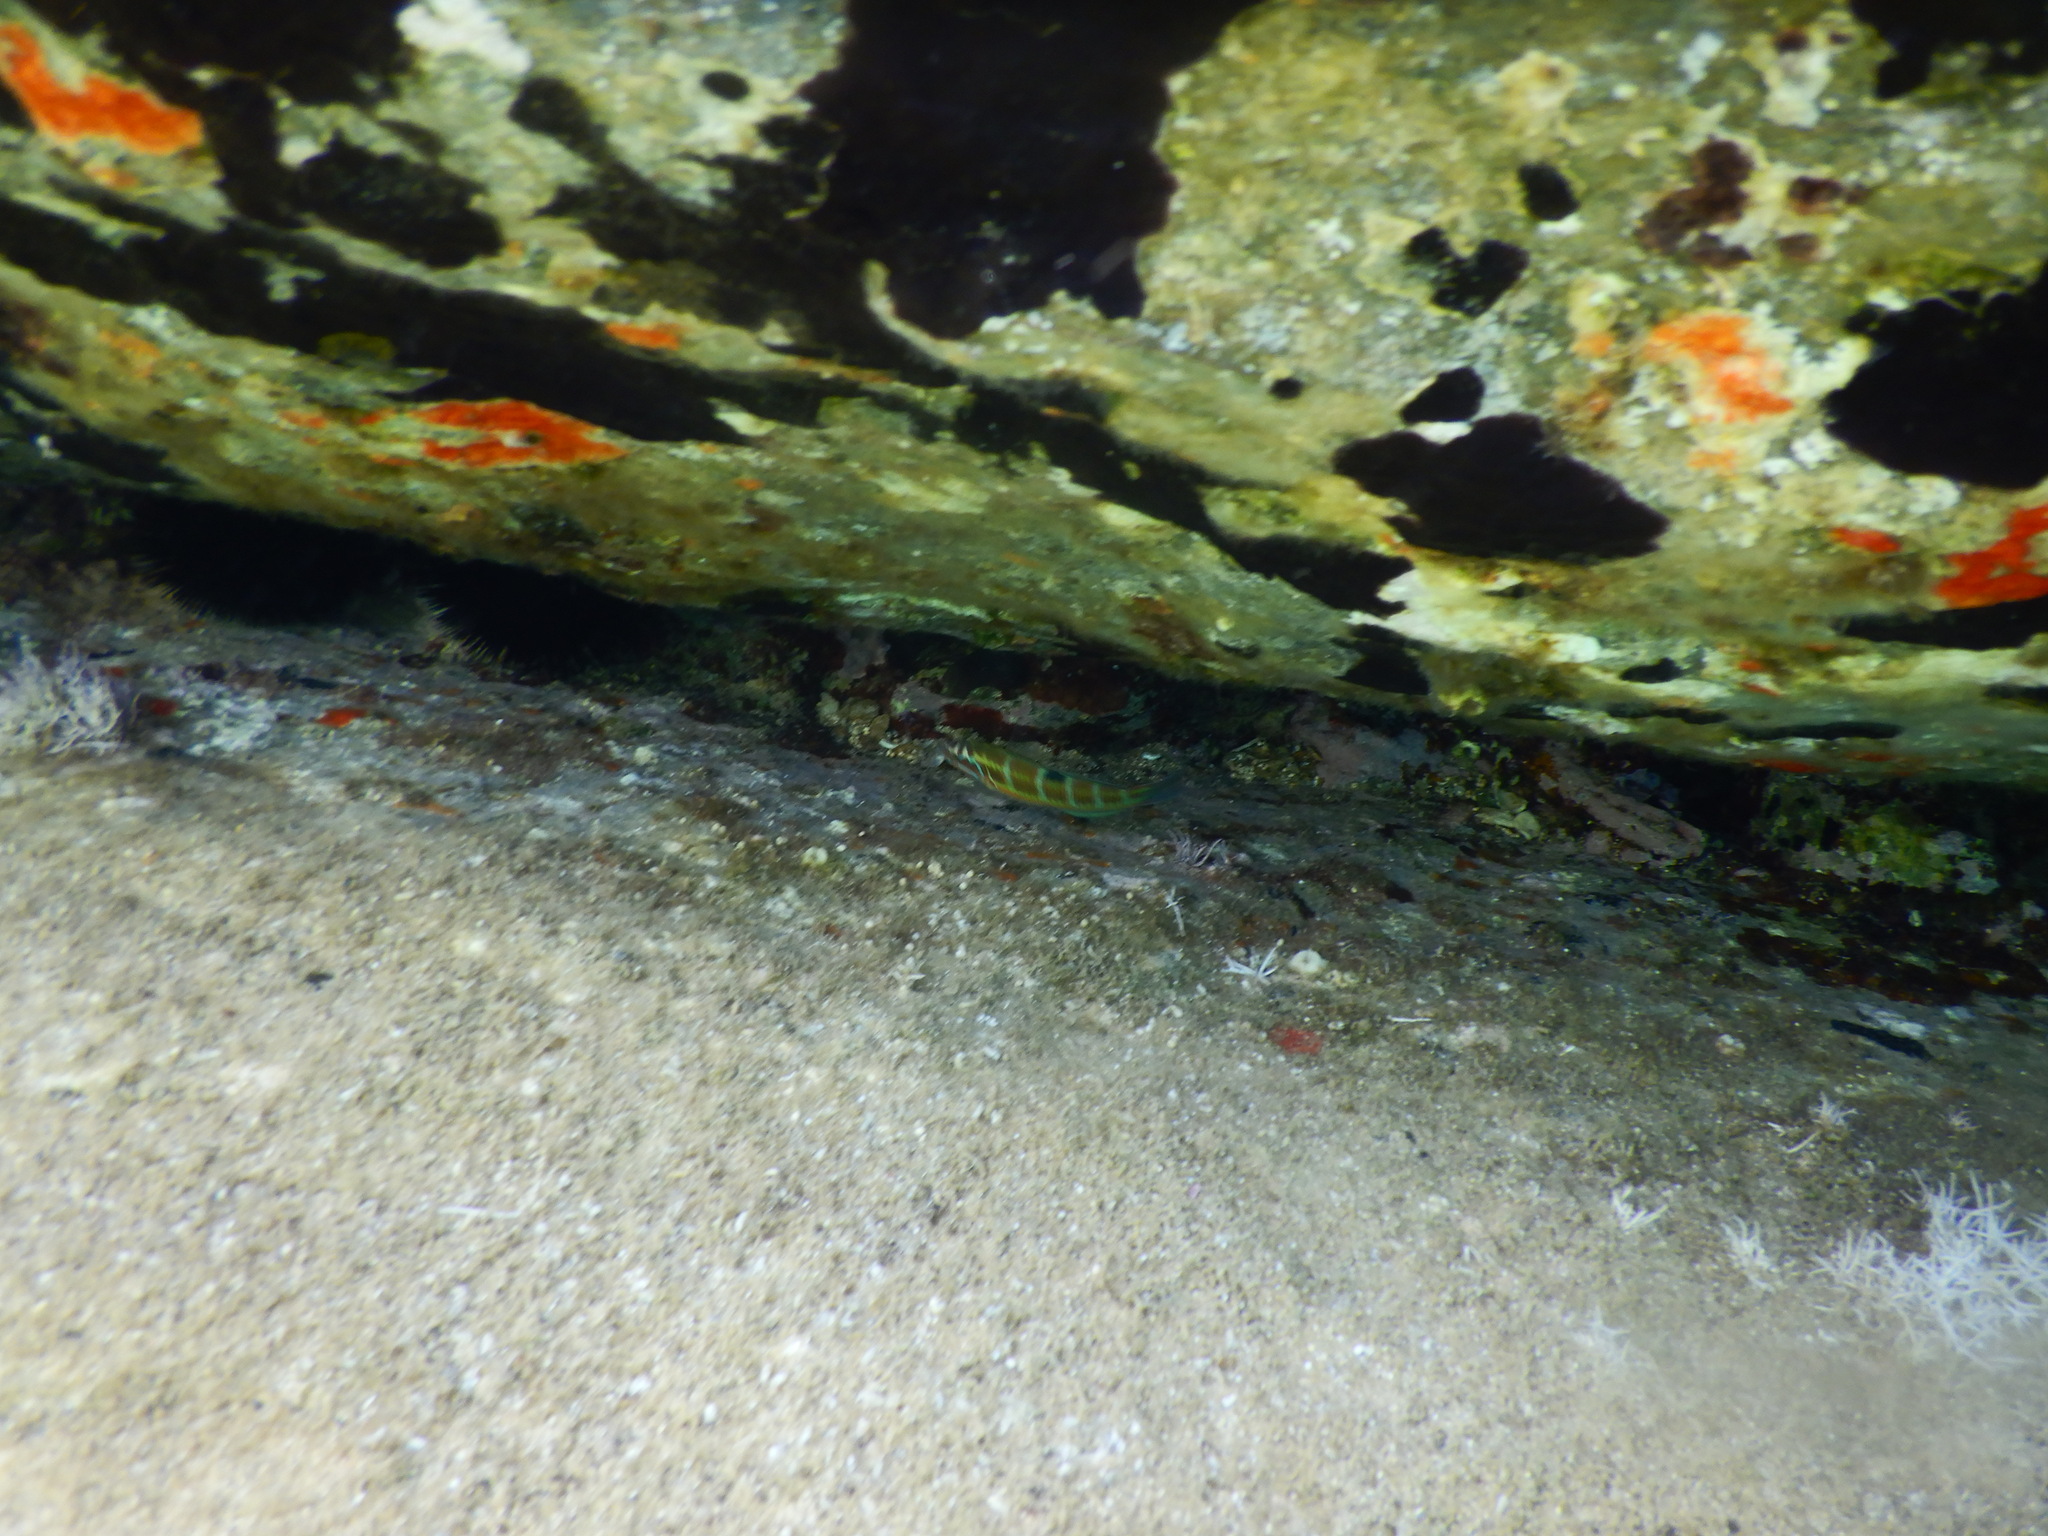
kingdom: Animalia
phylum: Chordata
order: Perciformes
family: Labridae
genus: Thalassoma
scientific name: Thalassoma pavo
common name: Ornate wrasse
